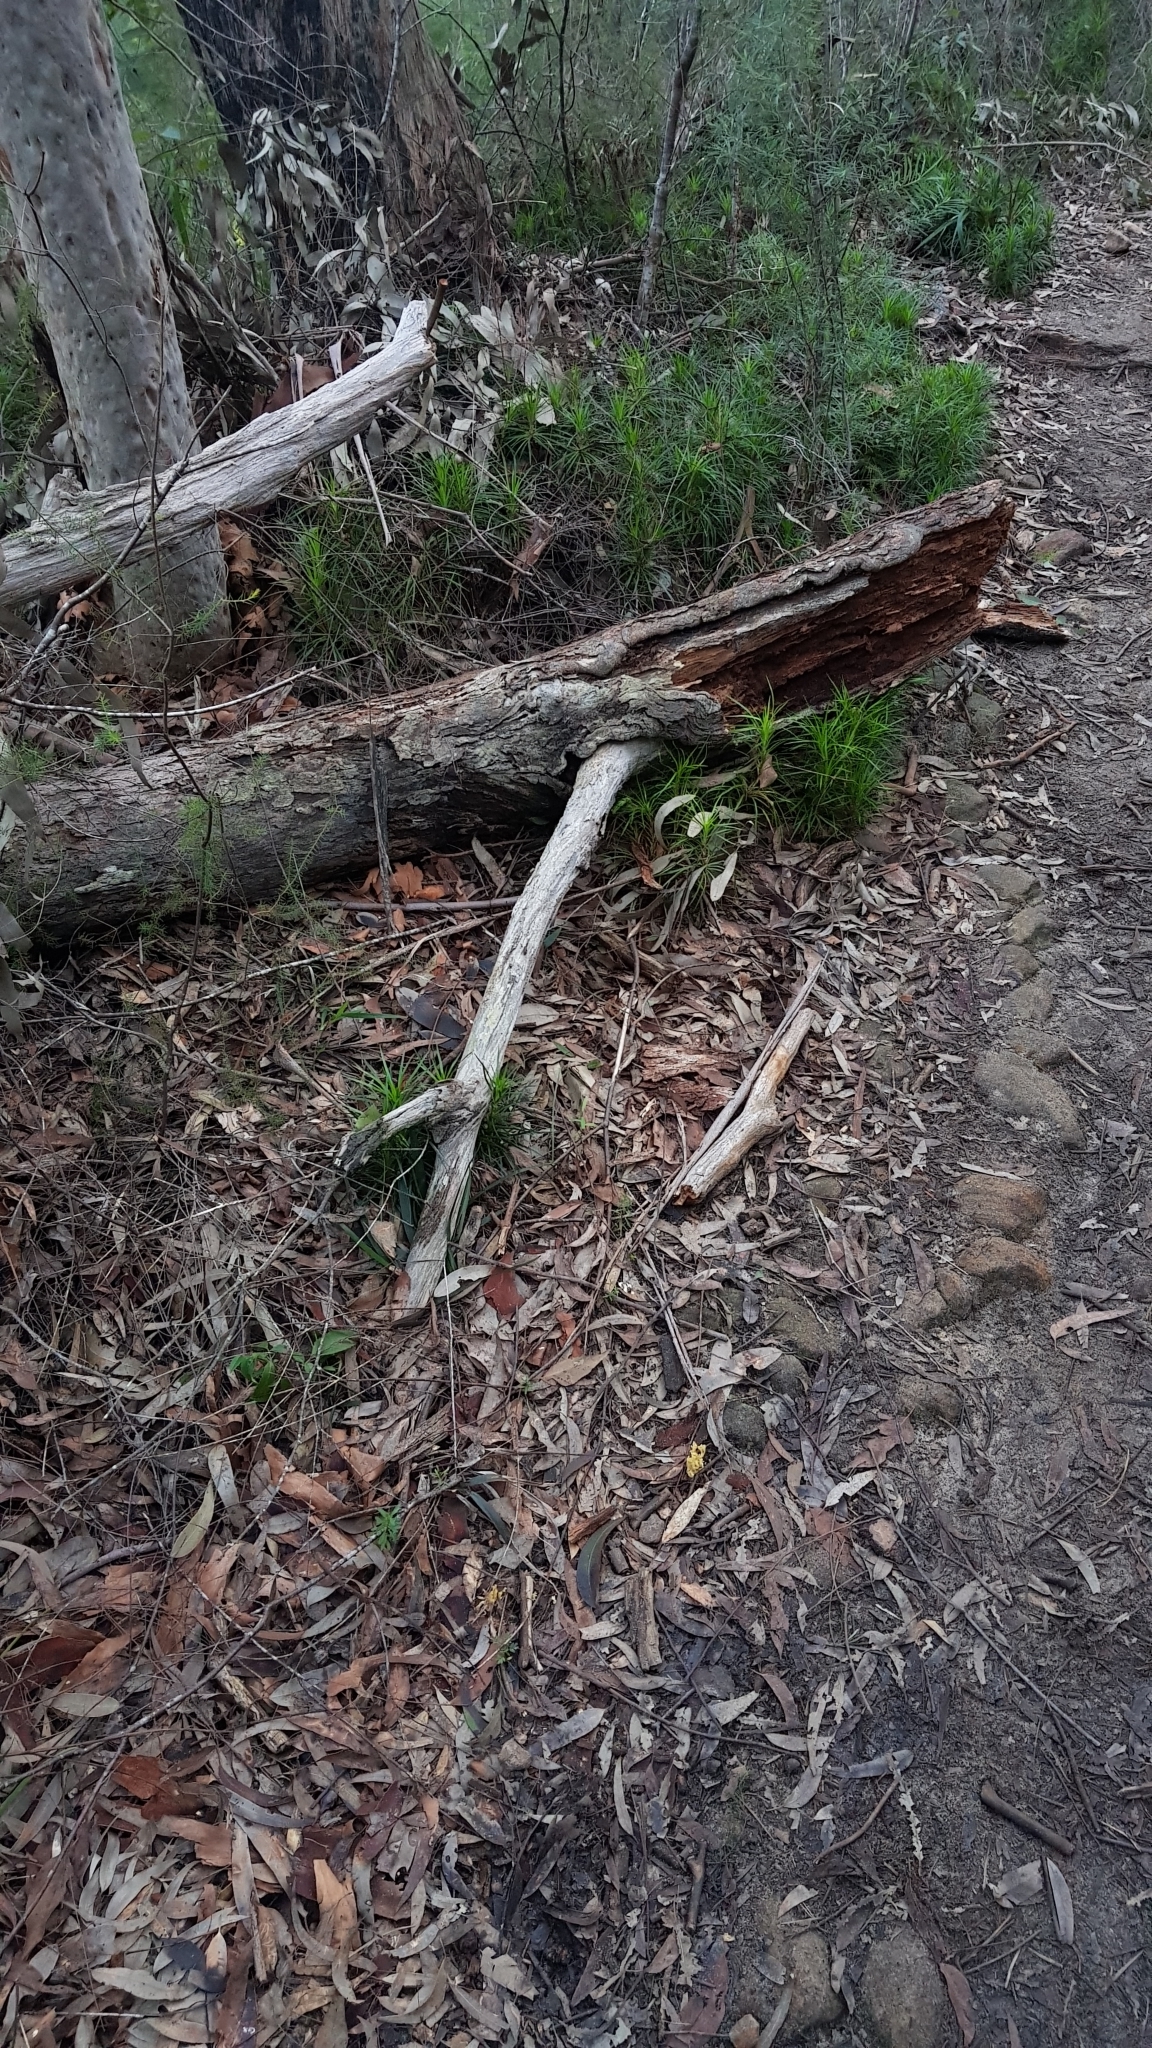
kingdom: Fungi
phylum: Basidiomycota
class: Agaricomycetes
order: Gomphales
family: Gomphaceae
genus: Ramaria
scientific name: Ramaria lorithamnus
